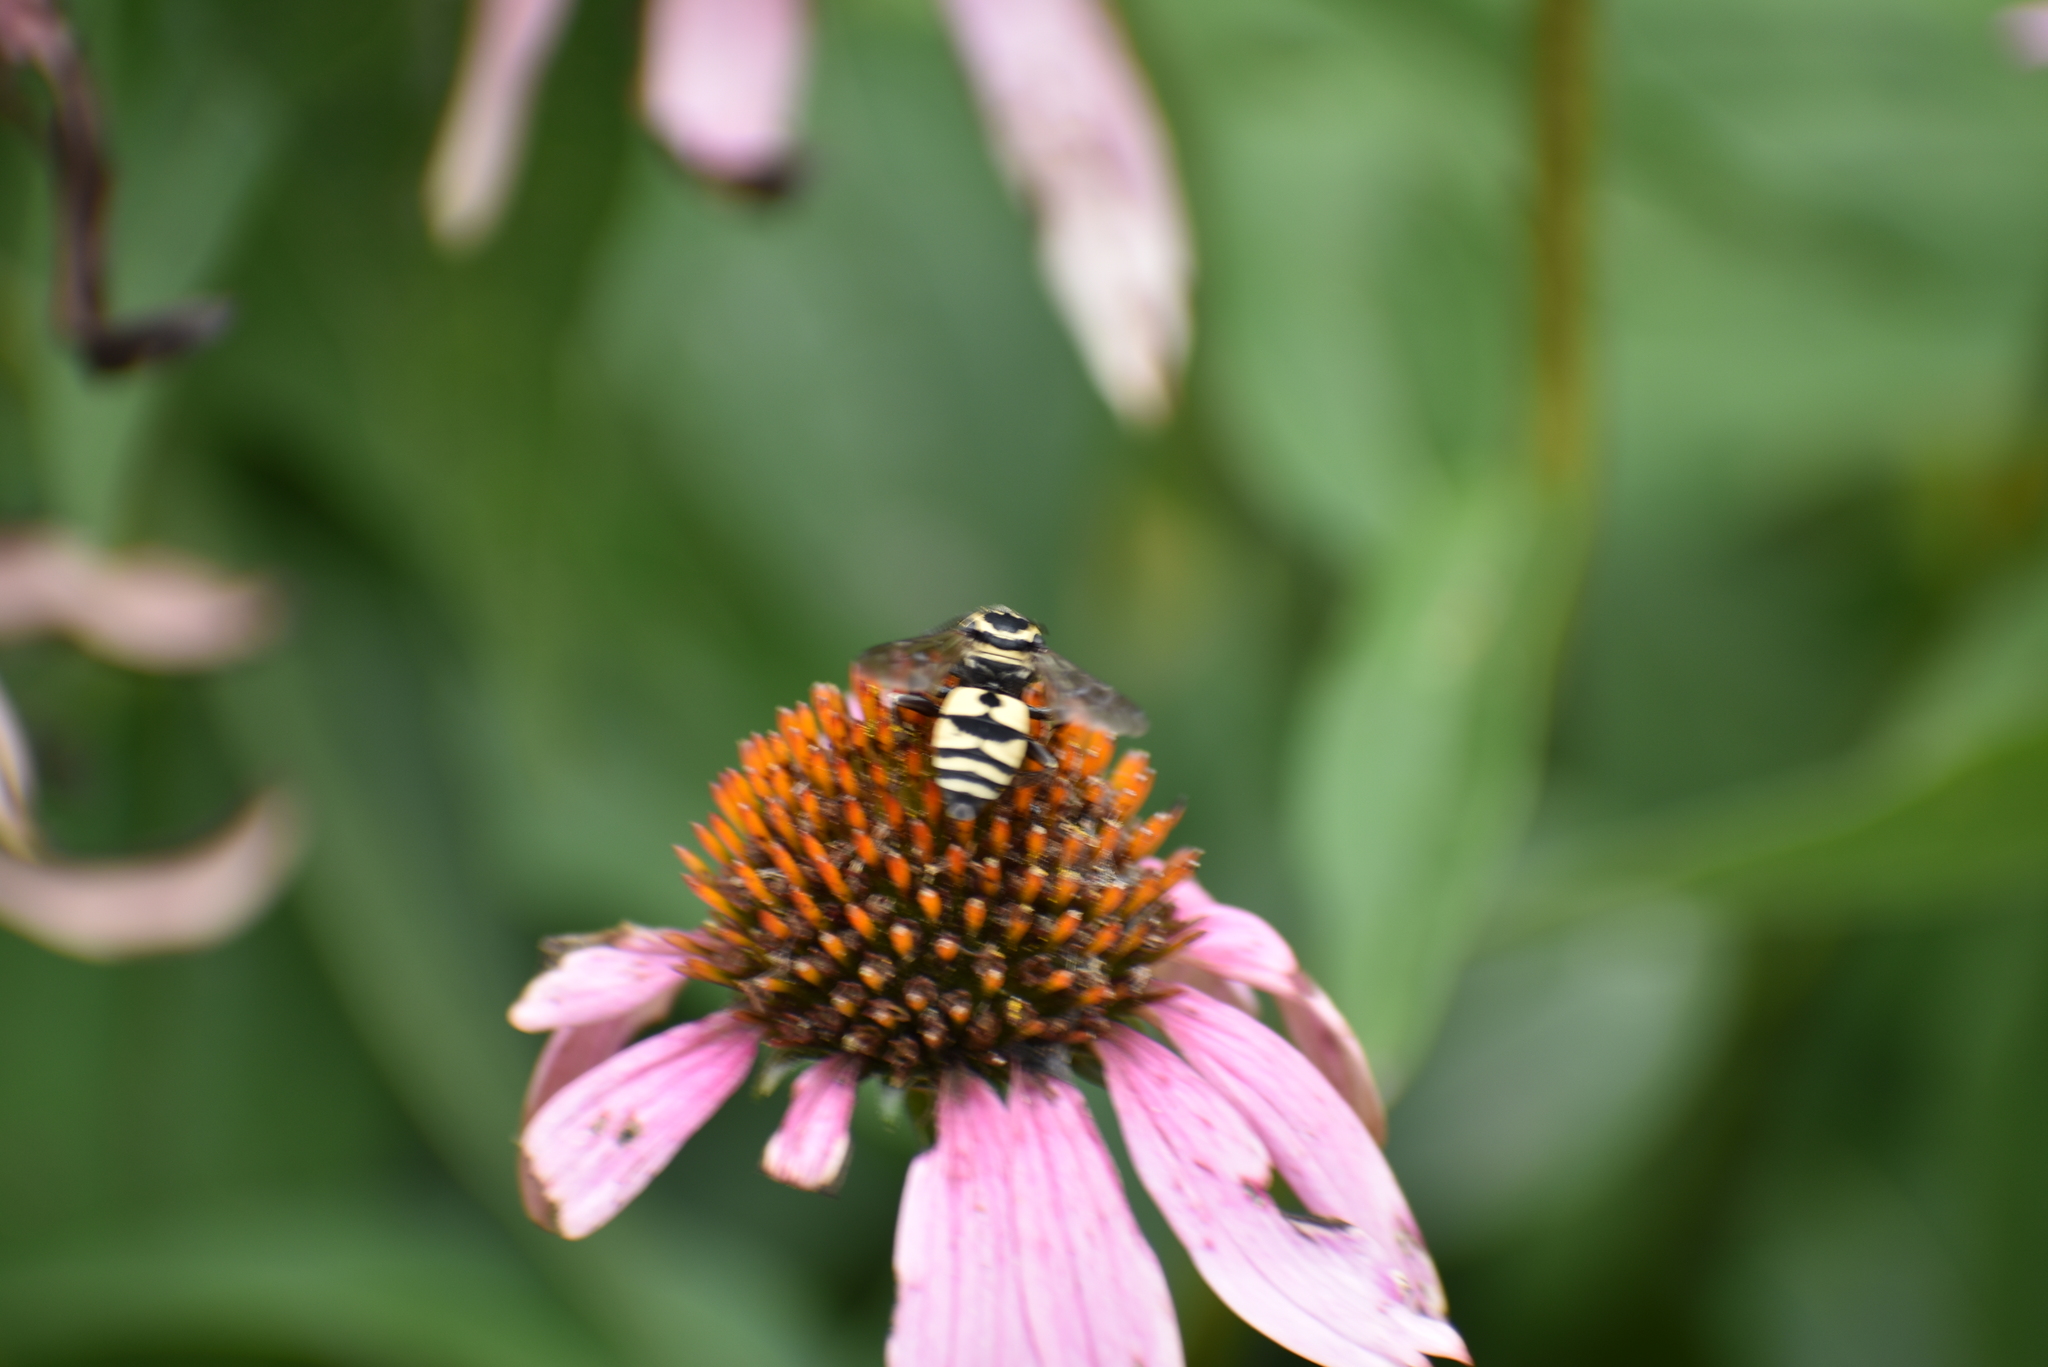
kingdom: Animalia
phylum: Arthropoda
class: Insecta
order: Hymenoptera
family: Apidae
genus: Triepeolus
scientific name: Triepeolus remigatus
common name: Squash longhorn-cuckoo
